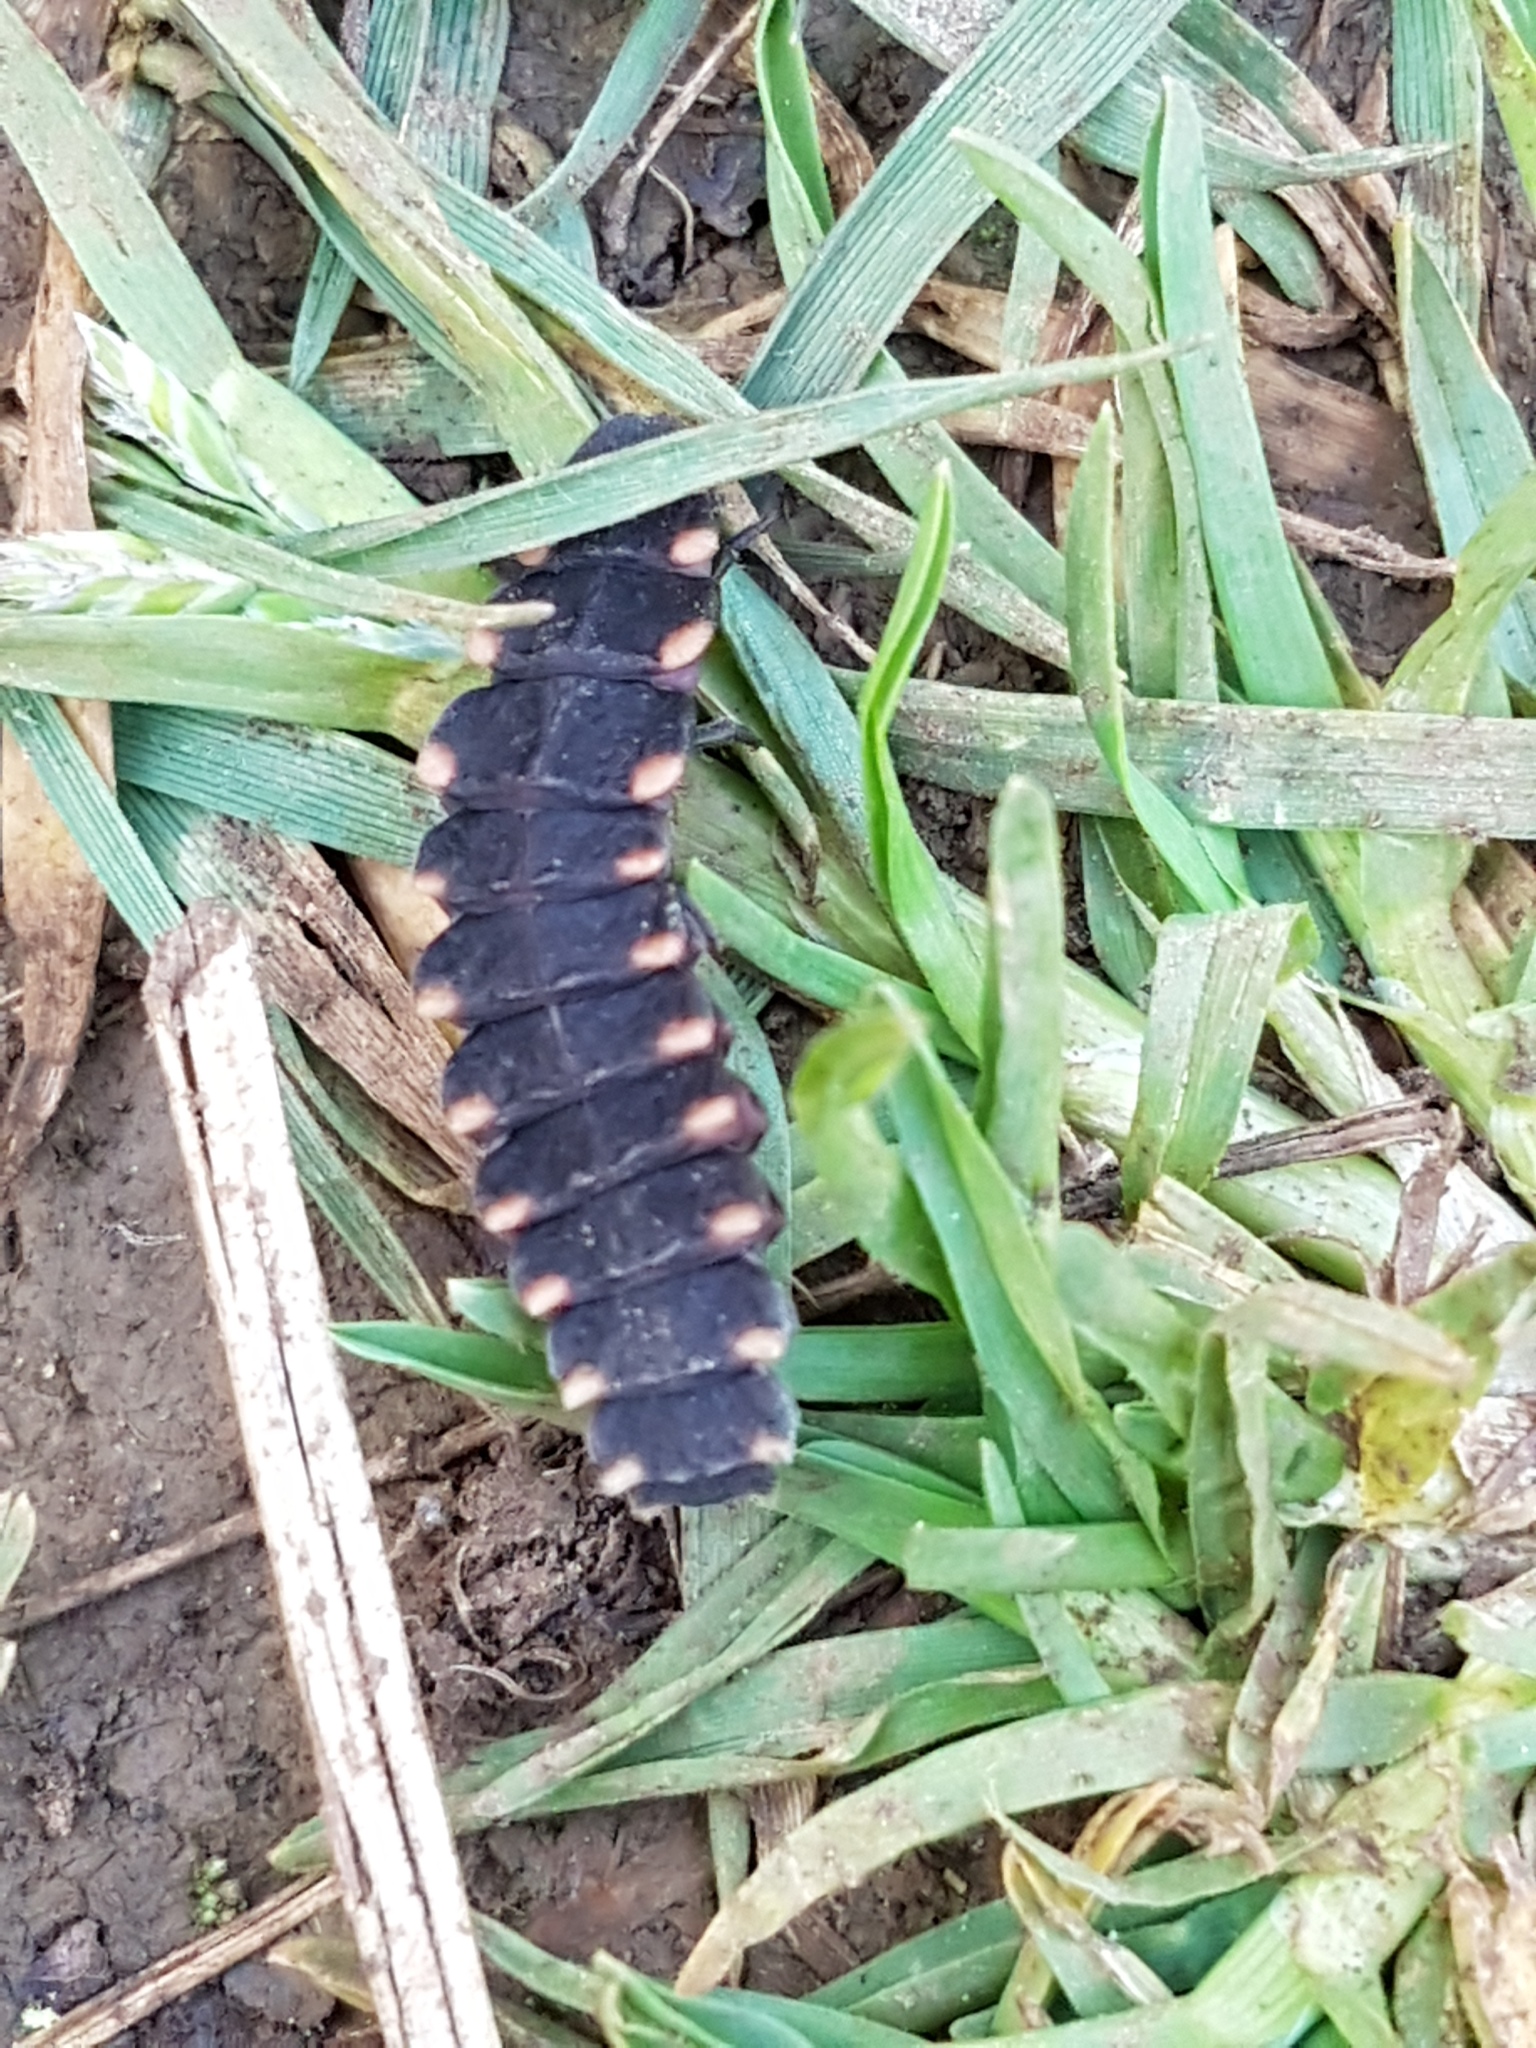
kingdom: Animalia
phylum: Arthropoda
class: Insecta
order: Coleoptera
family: Lampyridae
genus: Lampyris
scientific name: Lampyris noctiluca
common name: Glow-worm
